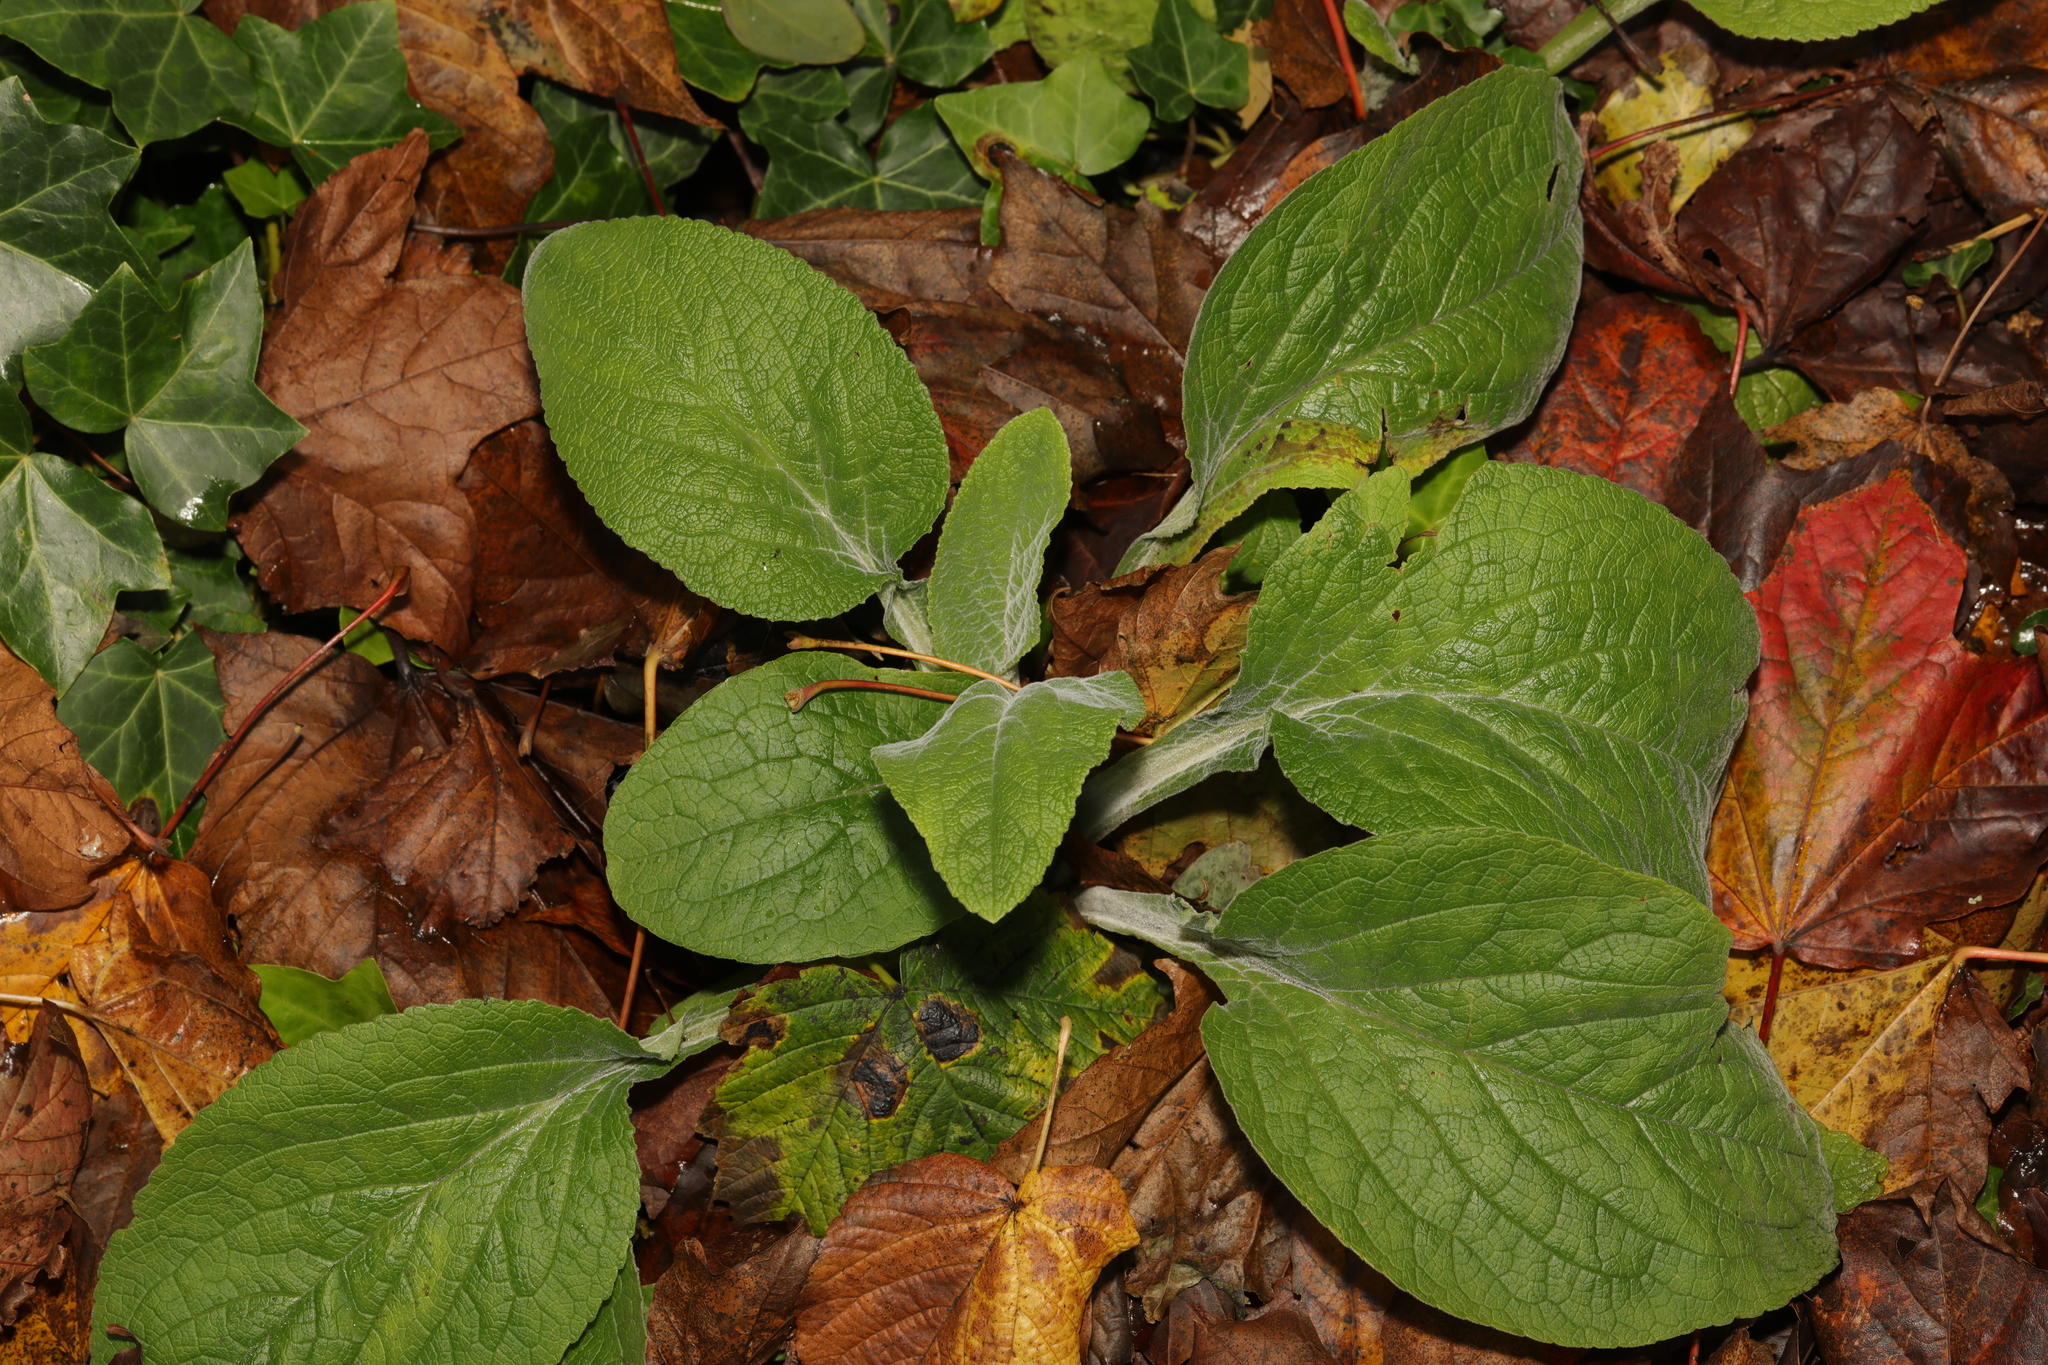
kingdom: Plantae
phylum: Tracheophyta
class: Magnoliopsida
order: Lamiales
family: Plantaginaceae
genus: Digitalis
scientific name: Digitalis purpurea
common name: Foxglove
